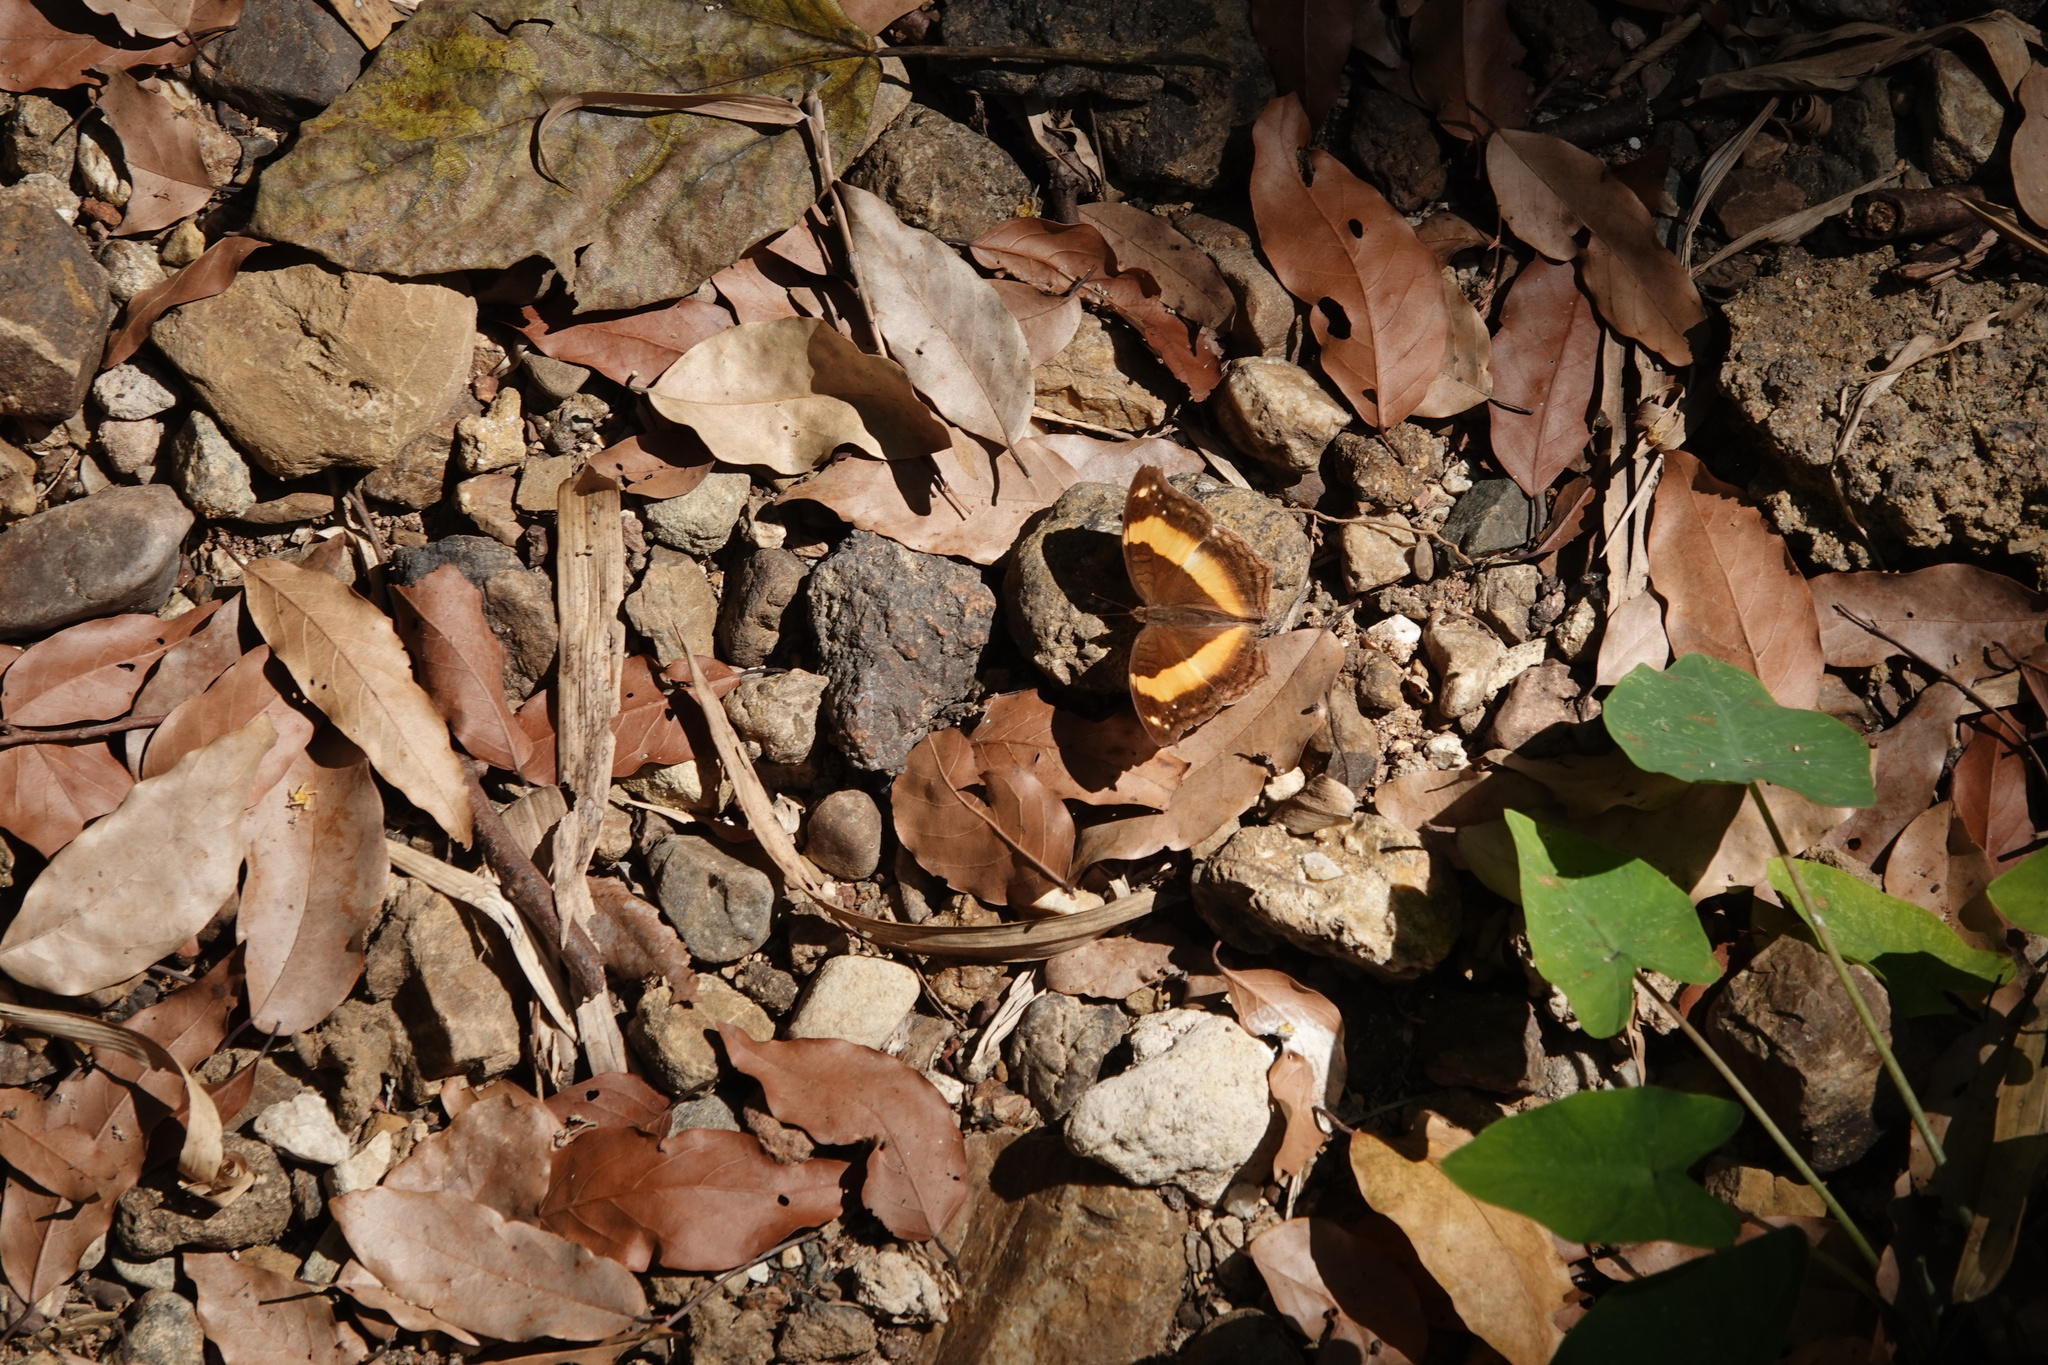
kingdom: Animalia
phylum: Arthropoda
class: Insecta
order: Lepidoptera
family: Nymphalidae
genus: Yoma
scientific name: Yoma sabina
